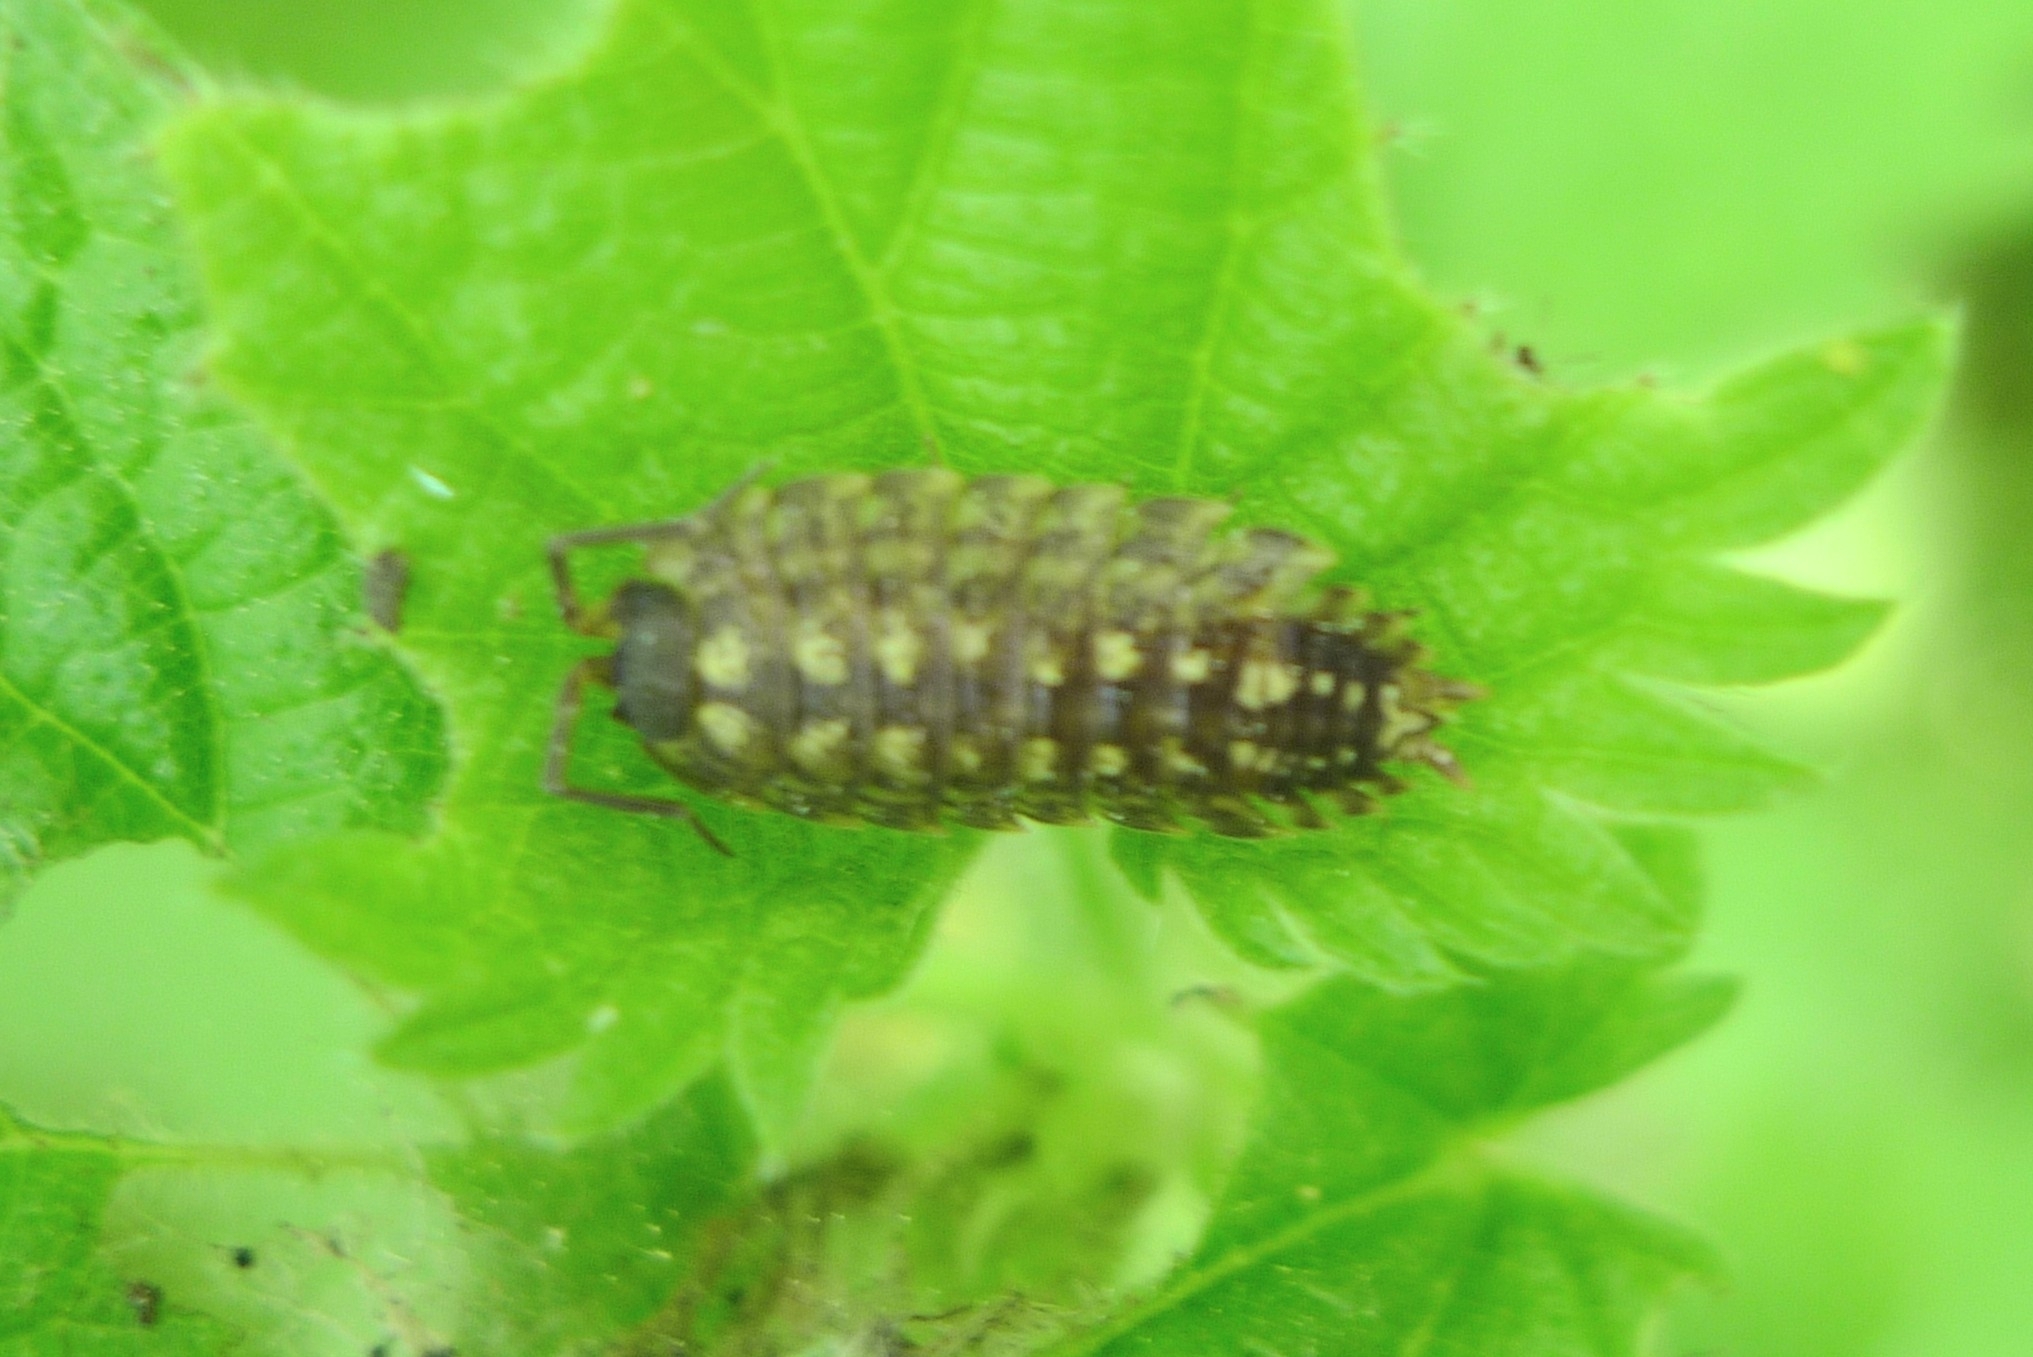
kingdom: Animalia
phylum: Arthropoda
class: Malacostraca
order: Isopoda
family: Porcellionidae
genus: Porcellio
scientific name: Porcellio spinicornis
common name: Painted woodlouse
